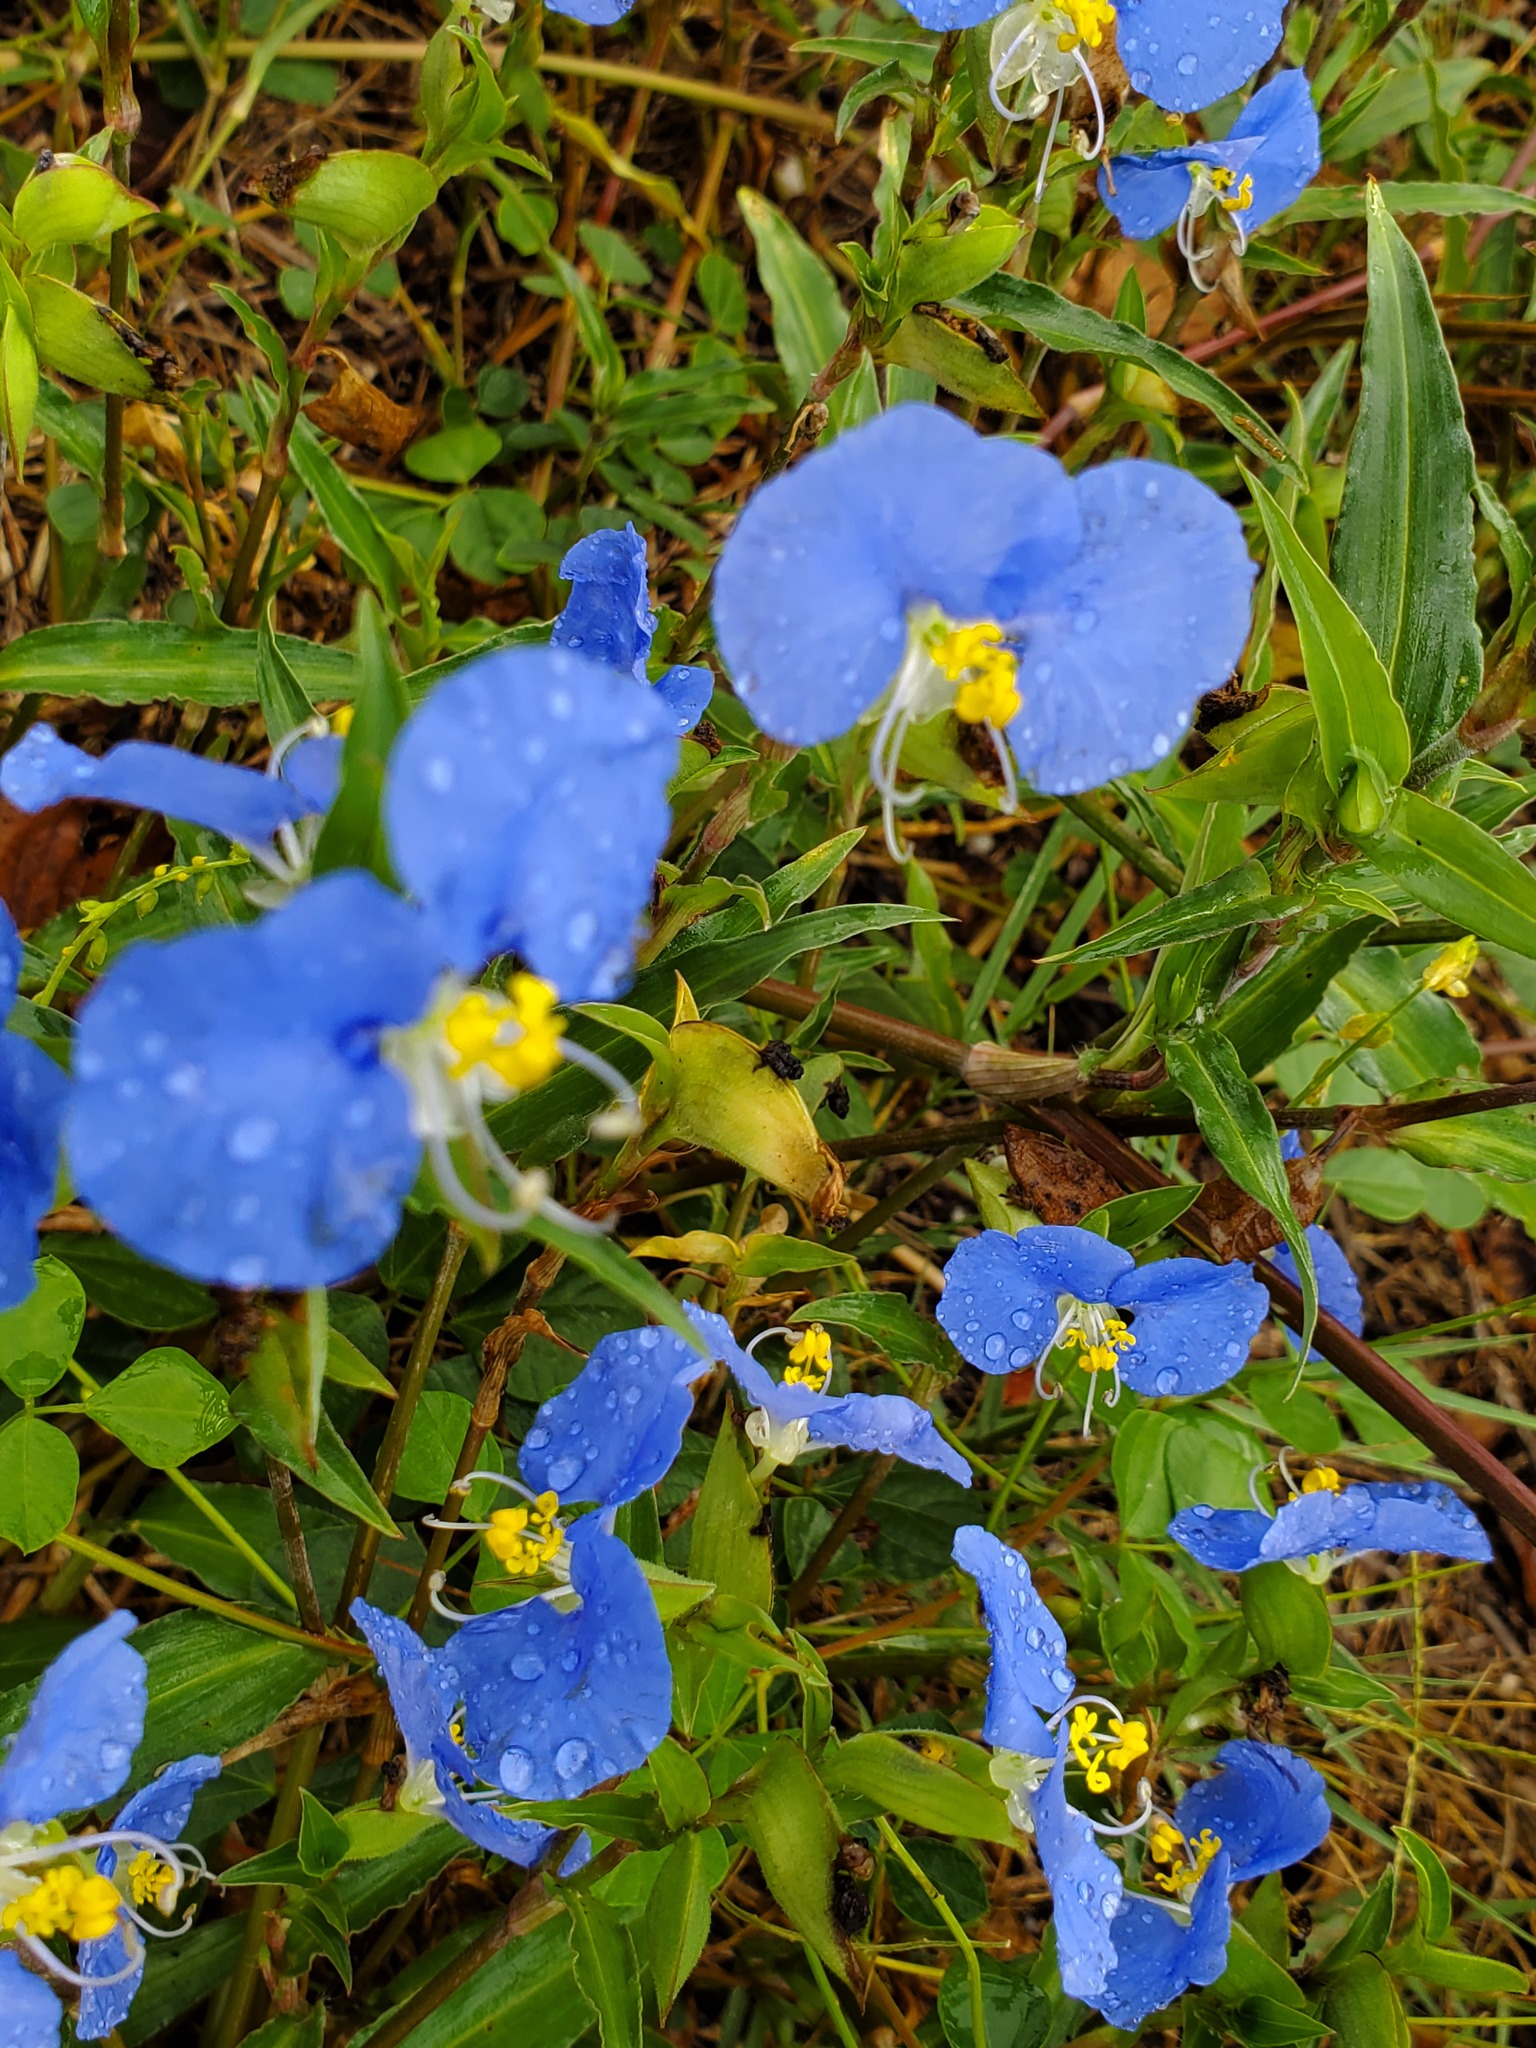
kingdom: Plantae
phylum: Tracheophyta
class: Liliopsida
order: Commelinales
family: Commelinaceae
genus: Commelina
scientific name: Commelina erecta
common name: Blousel blommetjie
